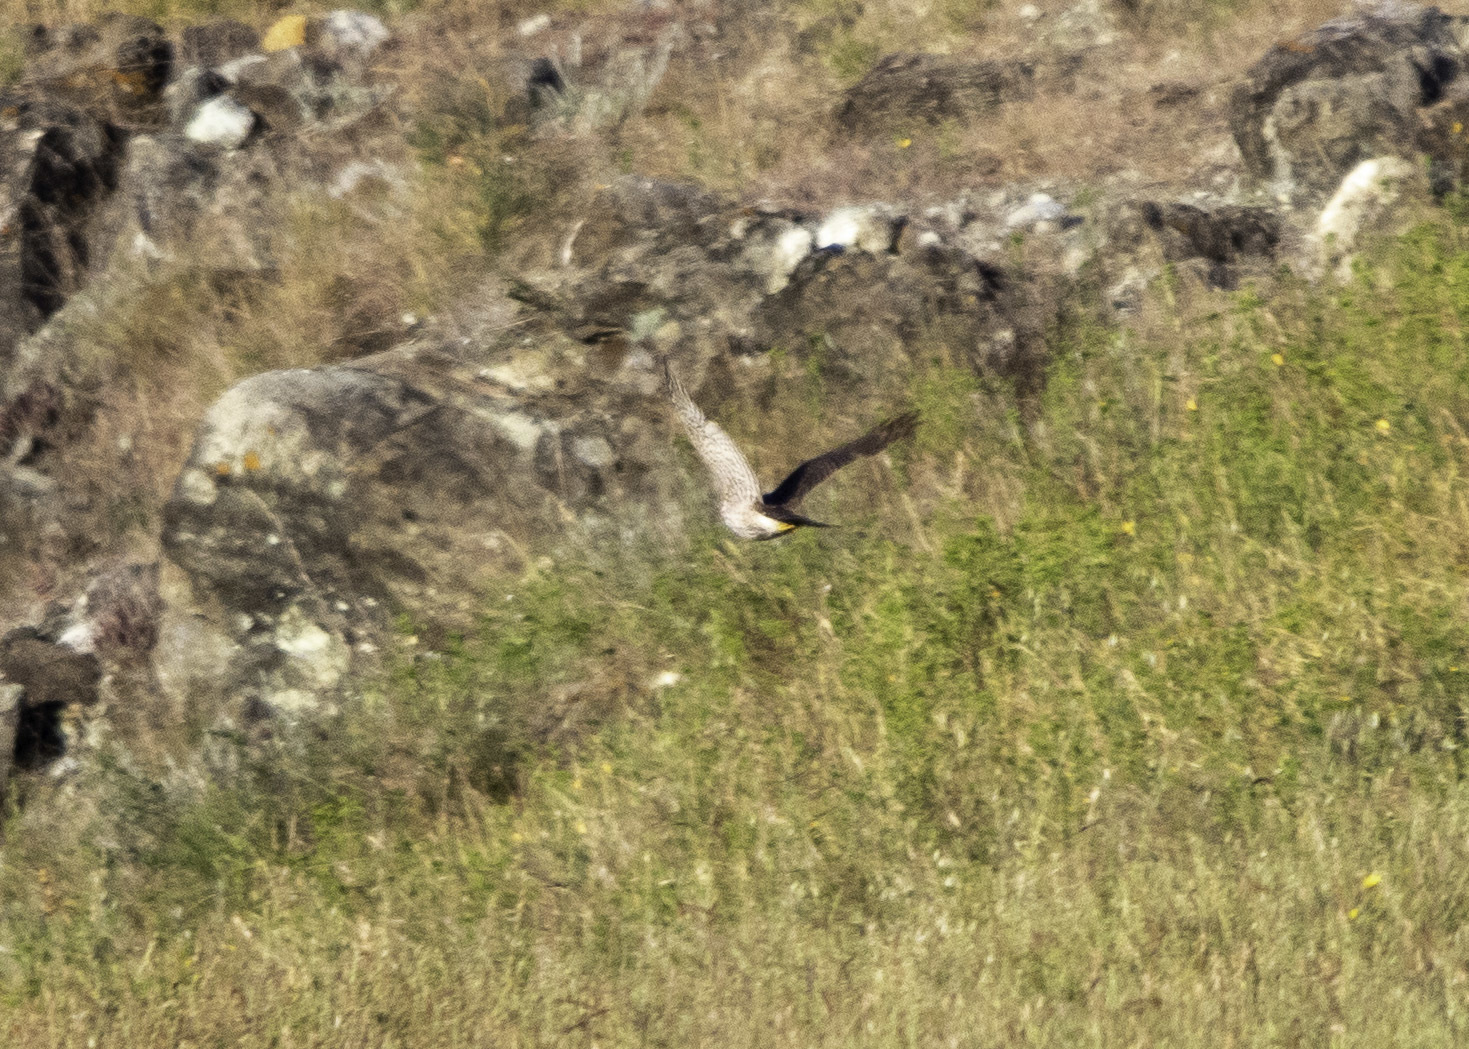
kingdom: Animalia
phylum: Chordata
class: Aves
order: Accipitriformes
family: Accipitridae
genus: Accipiter
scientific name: Accipiter cooperii
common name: Cooper's hawk
